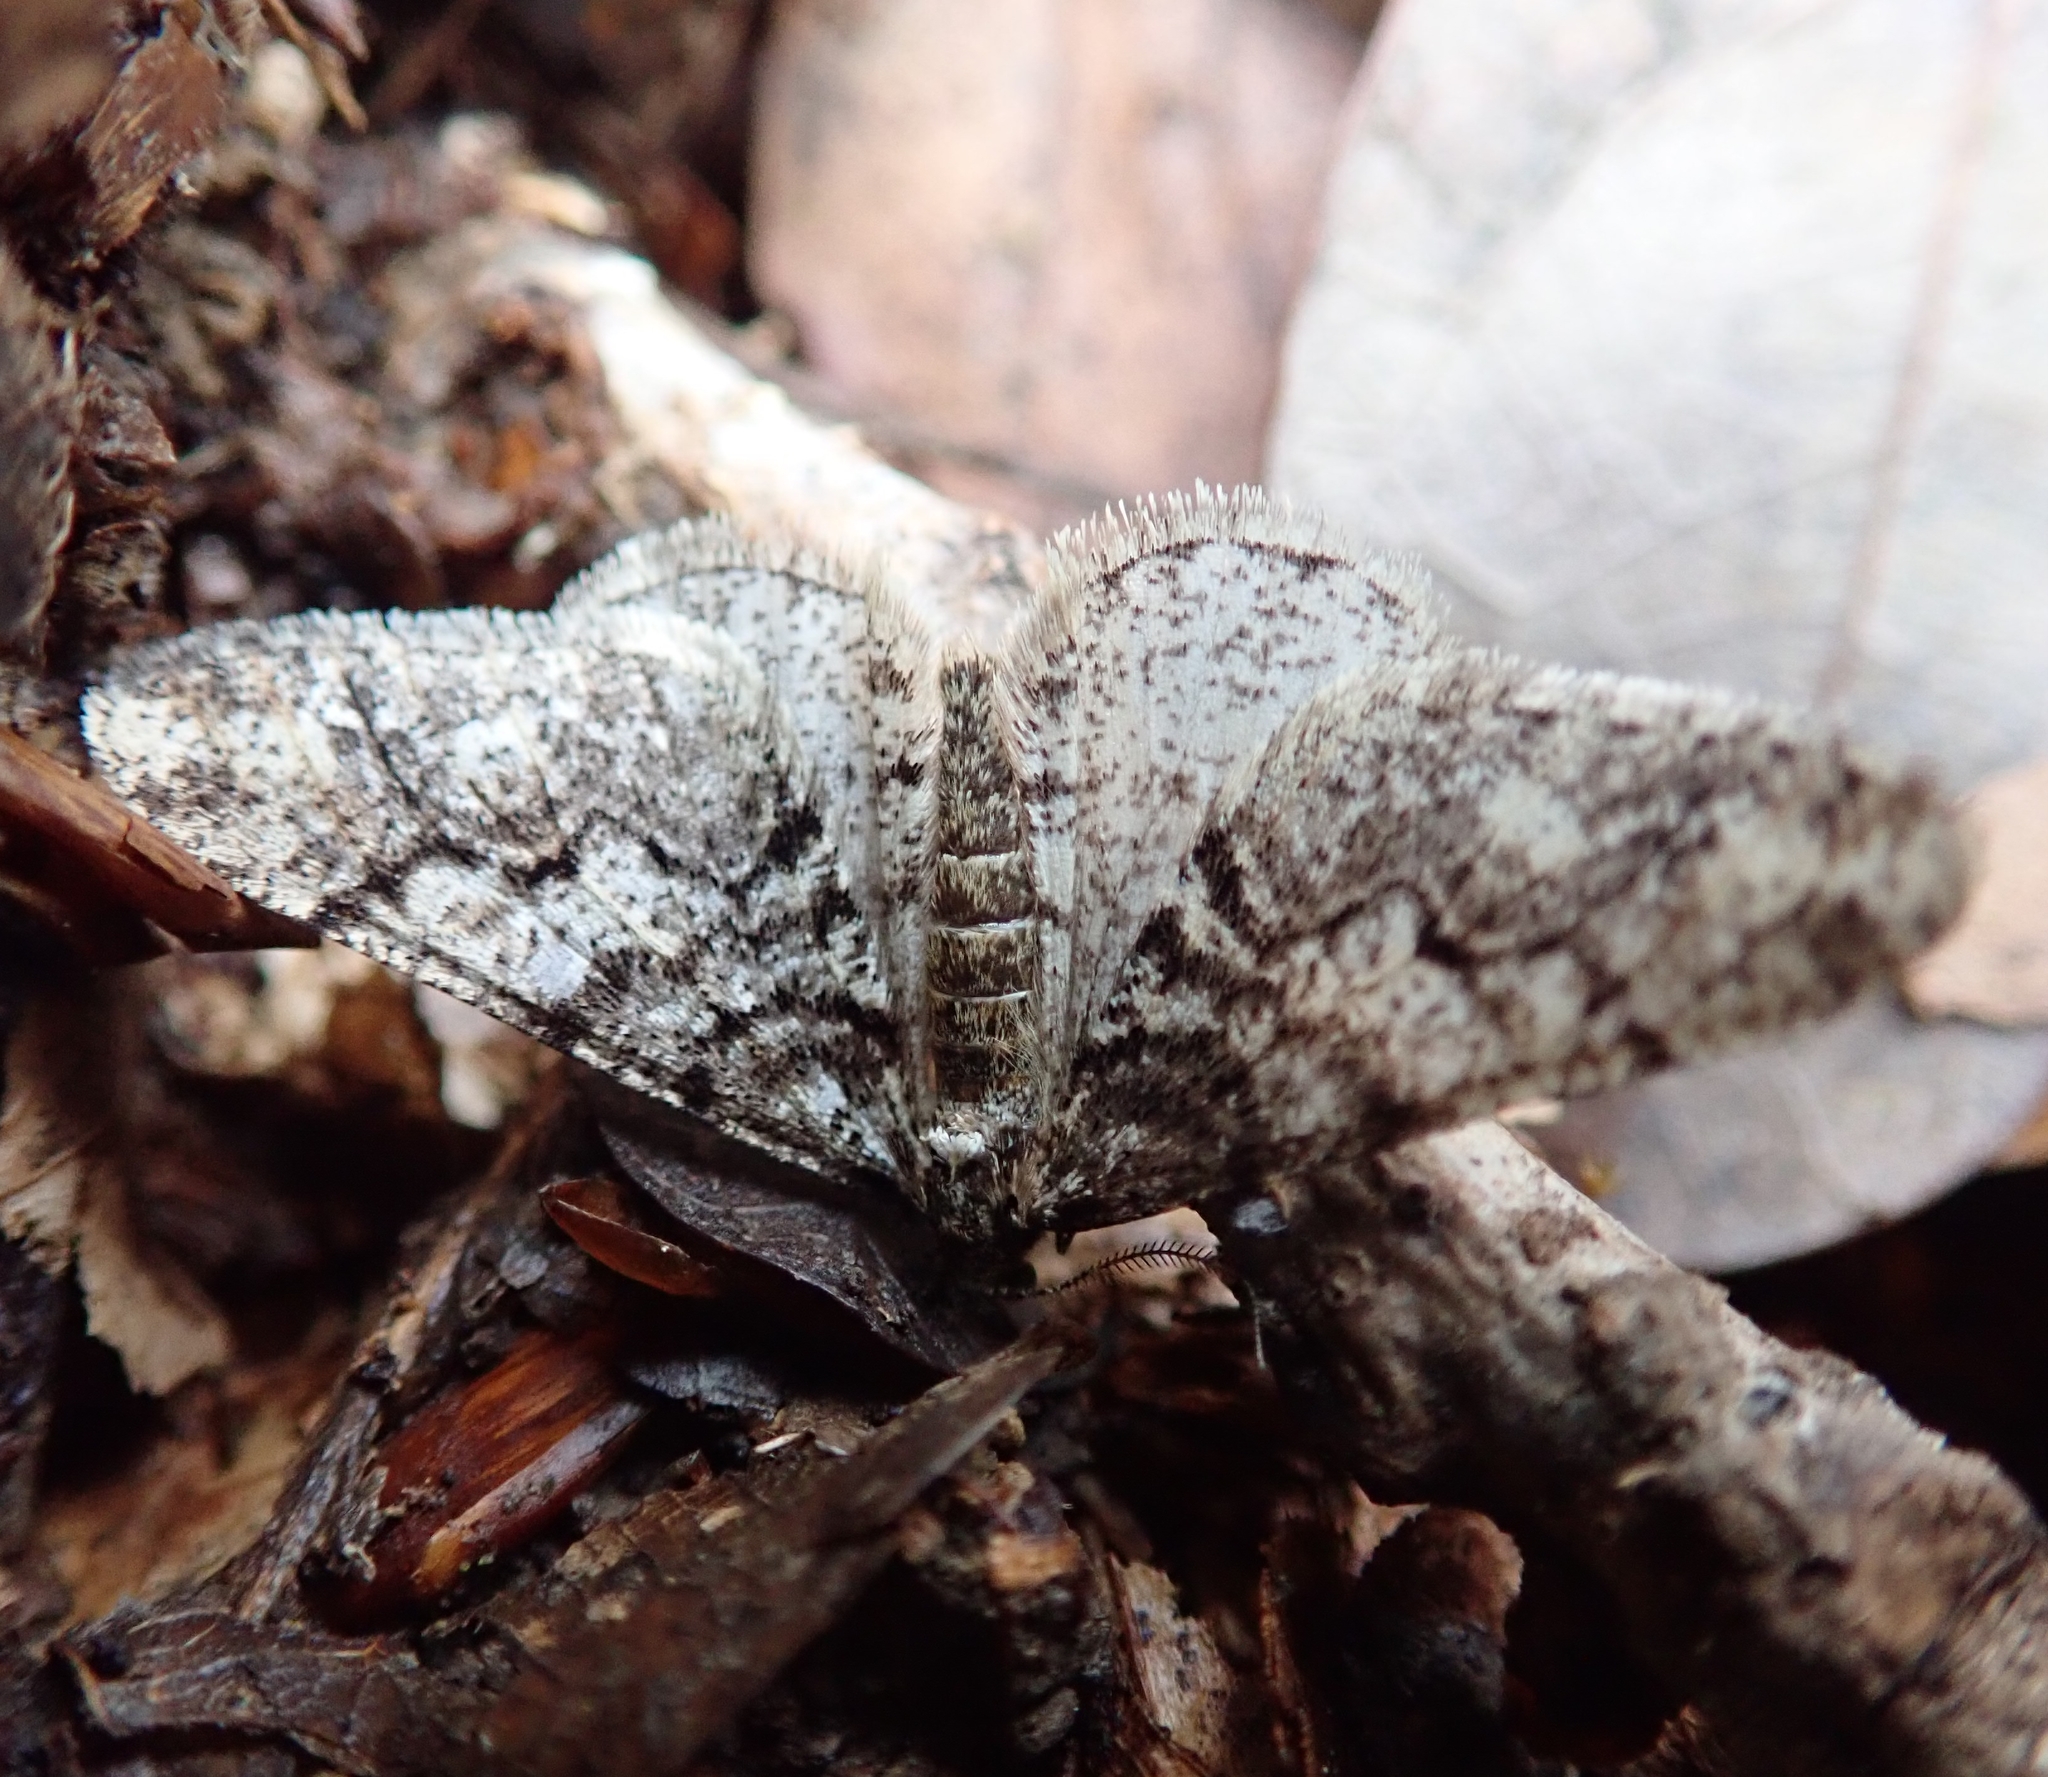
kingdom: Animalia
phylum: Arthropoda
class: Insecta
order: Lepidoptera
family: Geometridae
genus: Agriopis
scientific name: Agriopis leucophaearia
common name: Spring usher
